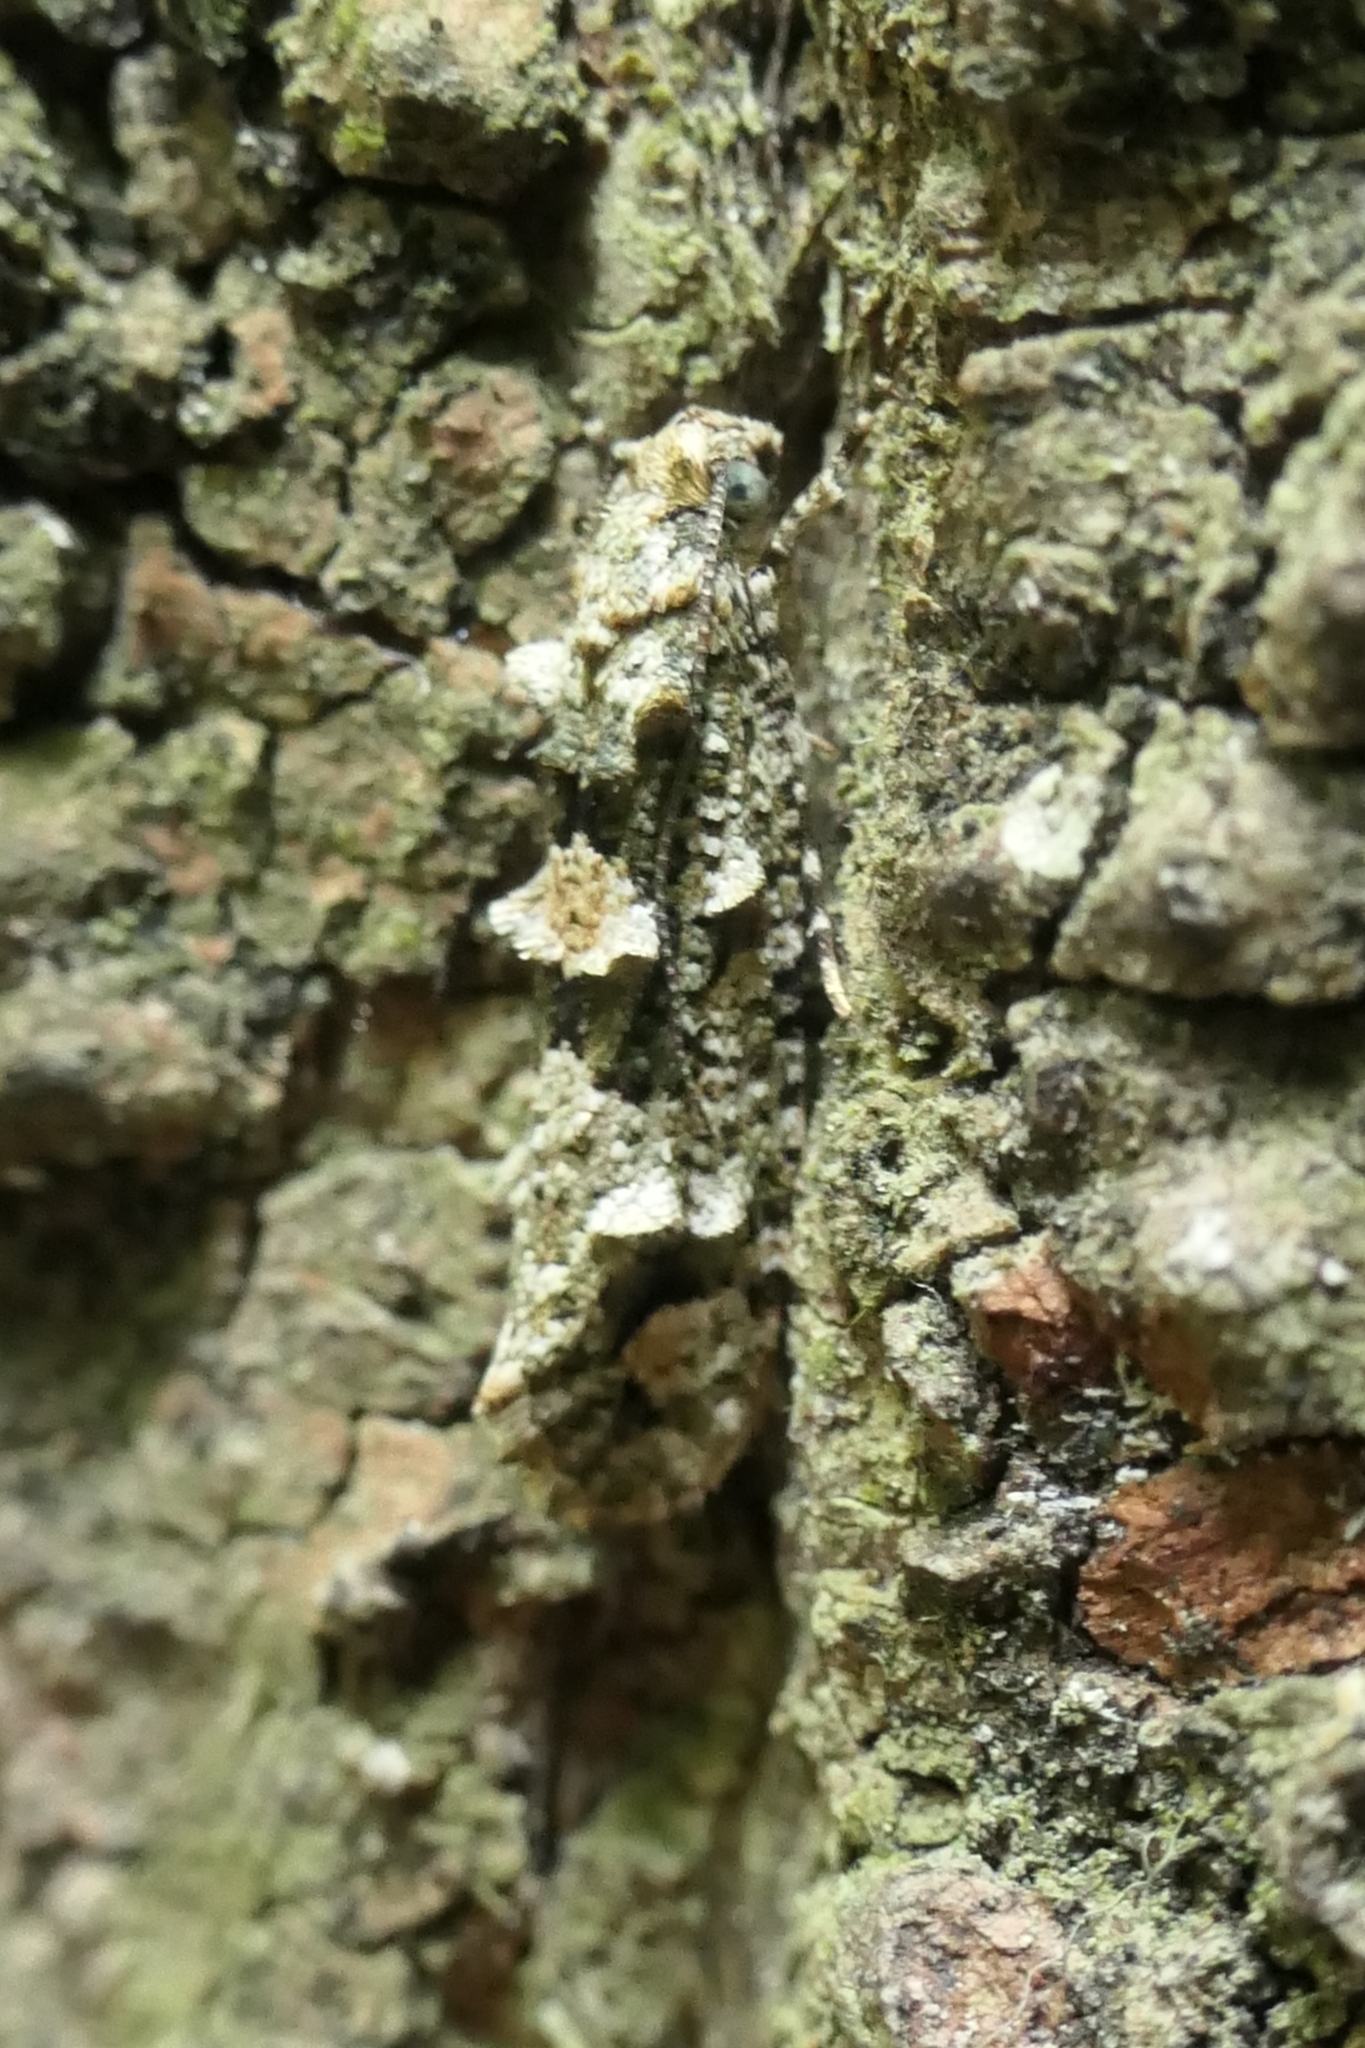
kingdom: Animalia
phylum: Arthropoda
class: Insecta
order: Lepidoptera
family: Tineidae
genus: Lysiphragma
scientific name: Lysiphragma howesii
